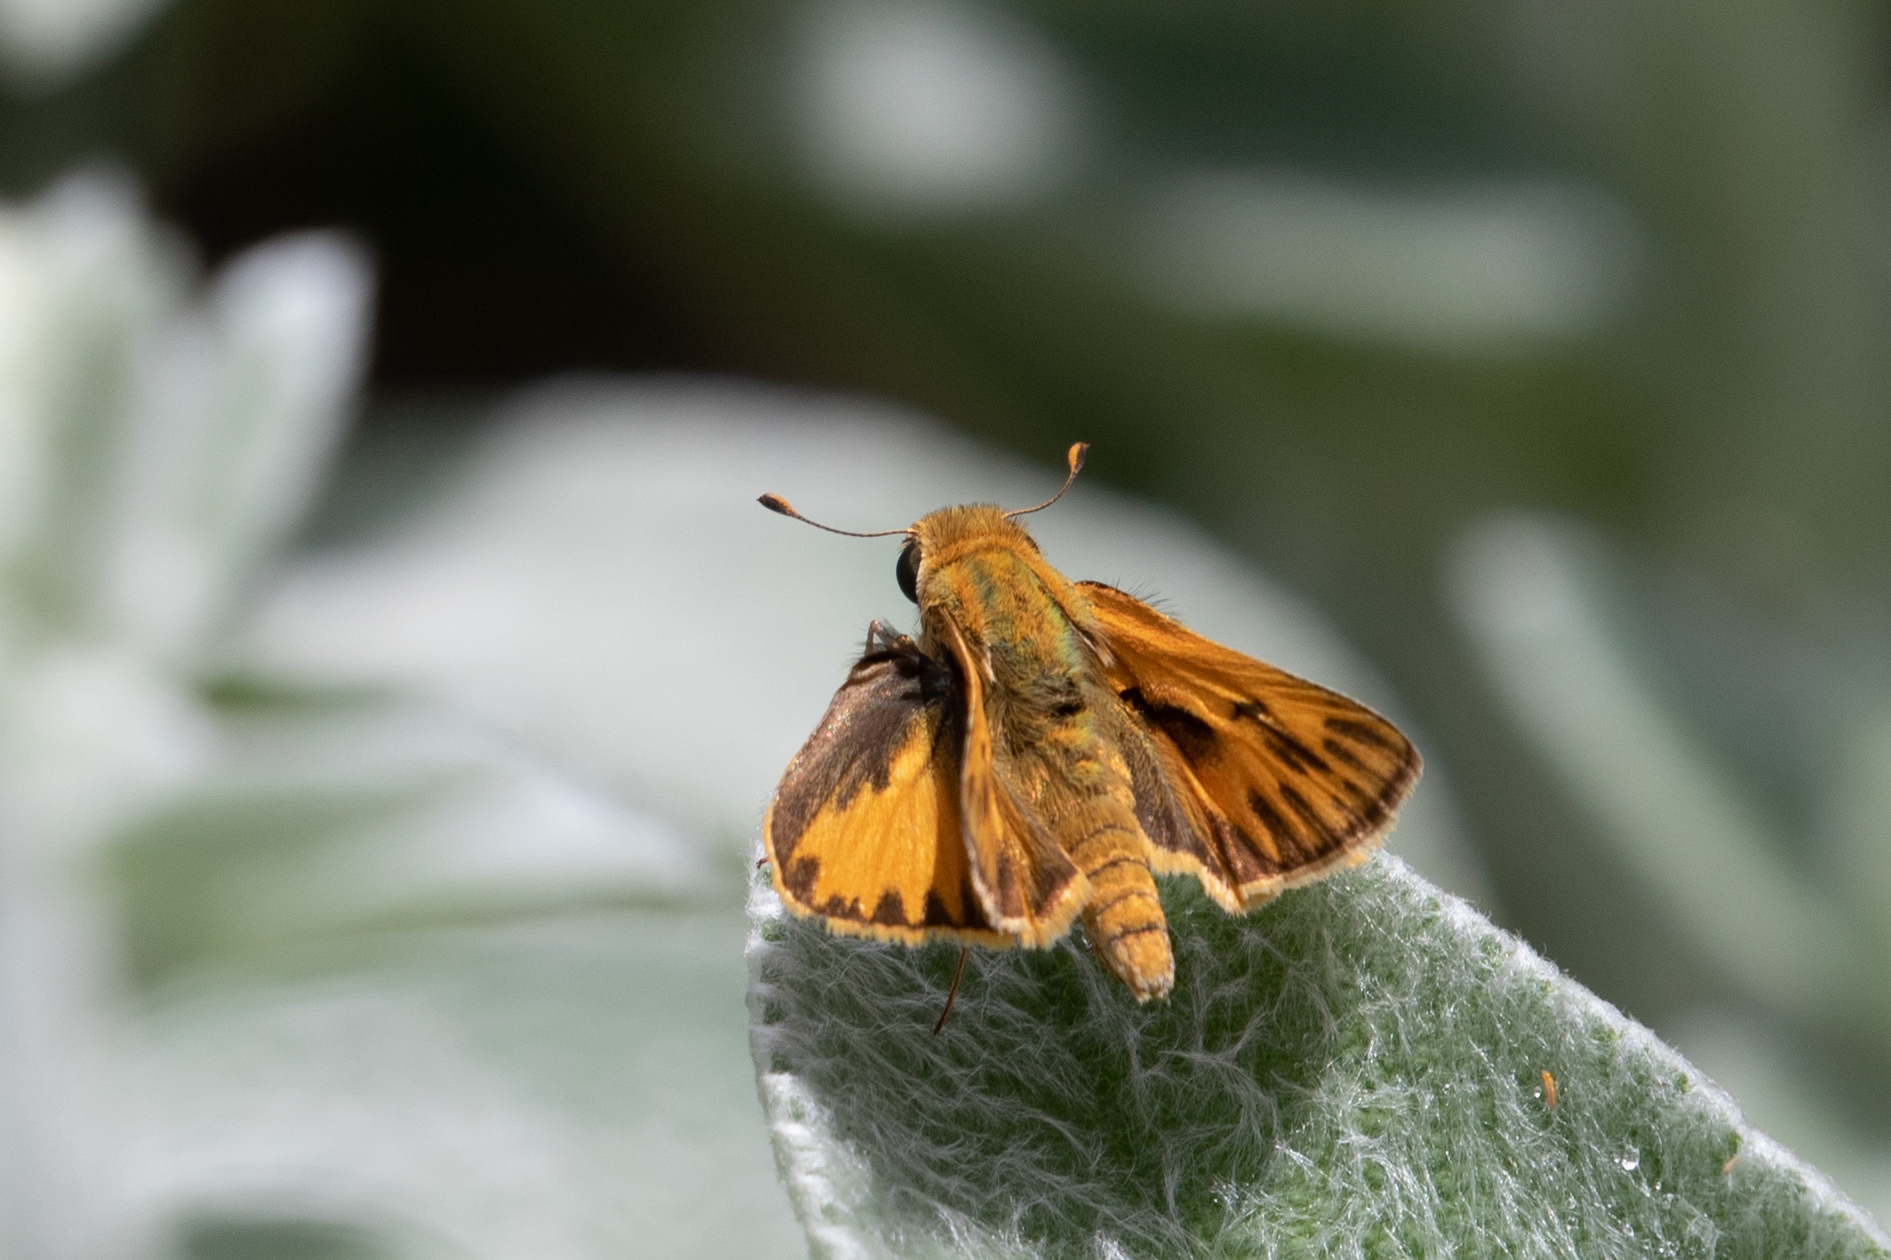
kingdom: Animalia
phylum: Arthropoda
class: Insecta
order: Lepidoptera
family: Hesperiidae
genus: Hylephila
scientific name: Hylephila phyleus
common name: Fiery skipper
